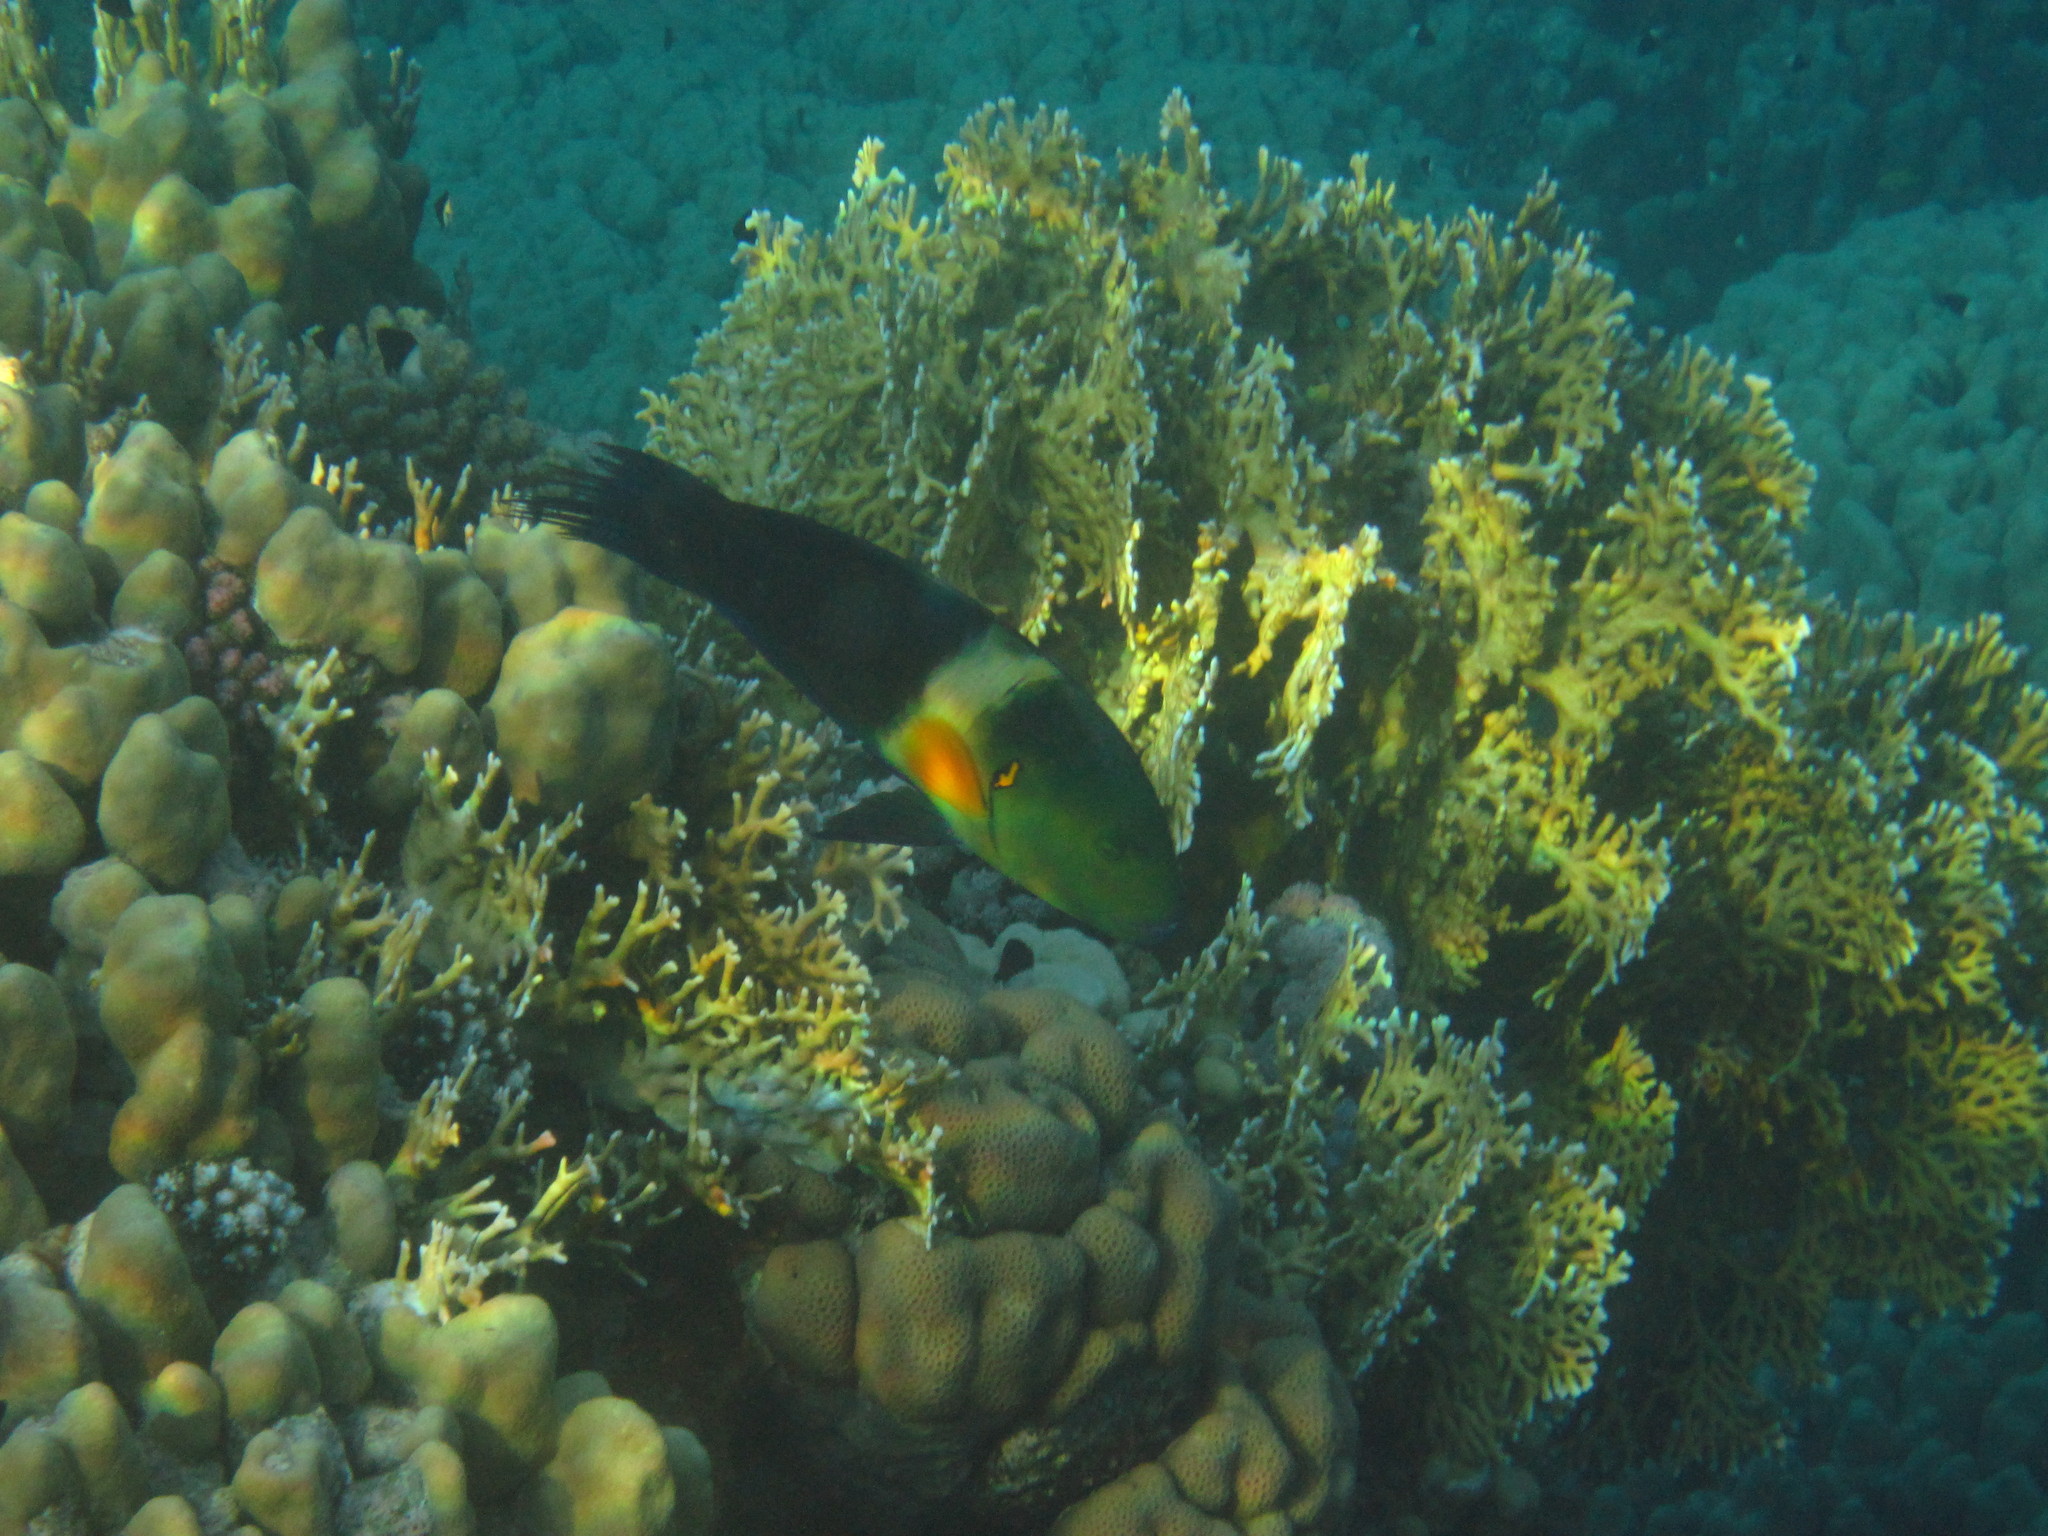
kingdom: Animalia
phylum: Chordata
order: Perciformes
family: Labridae
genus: Cheilinus
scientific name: Cheilinus lunulatus
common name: Broomtail wrasse
